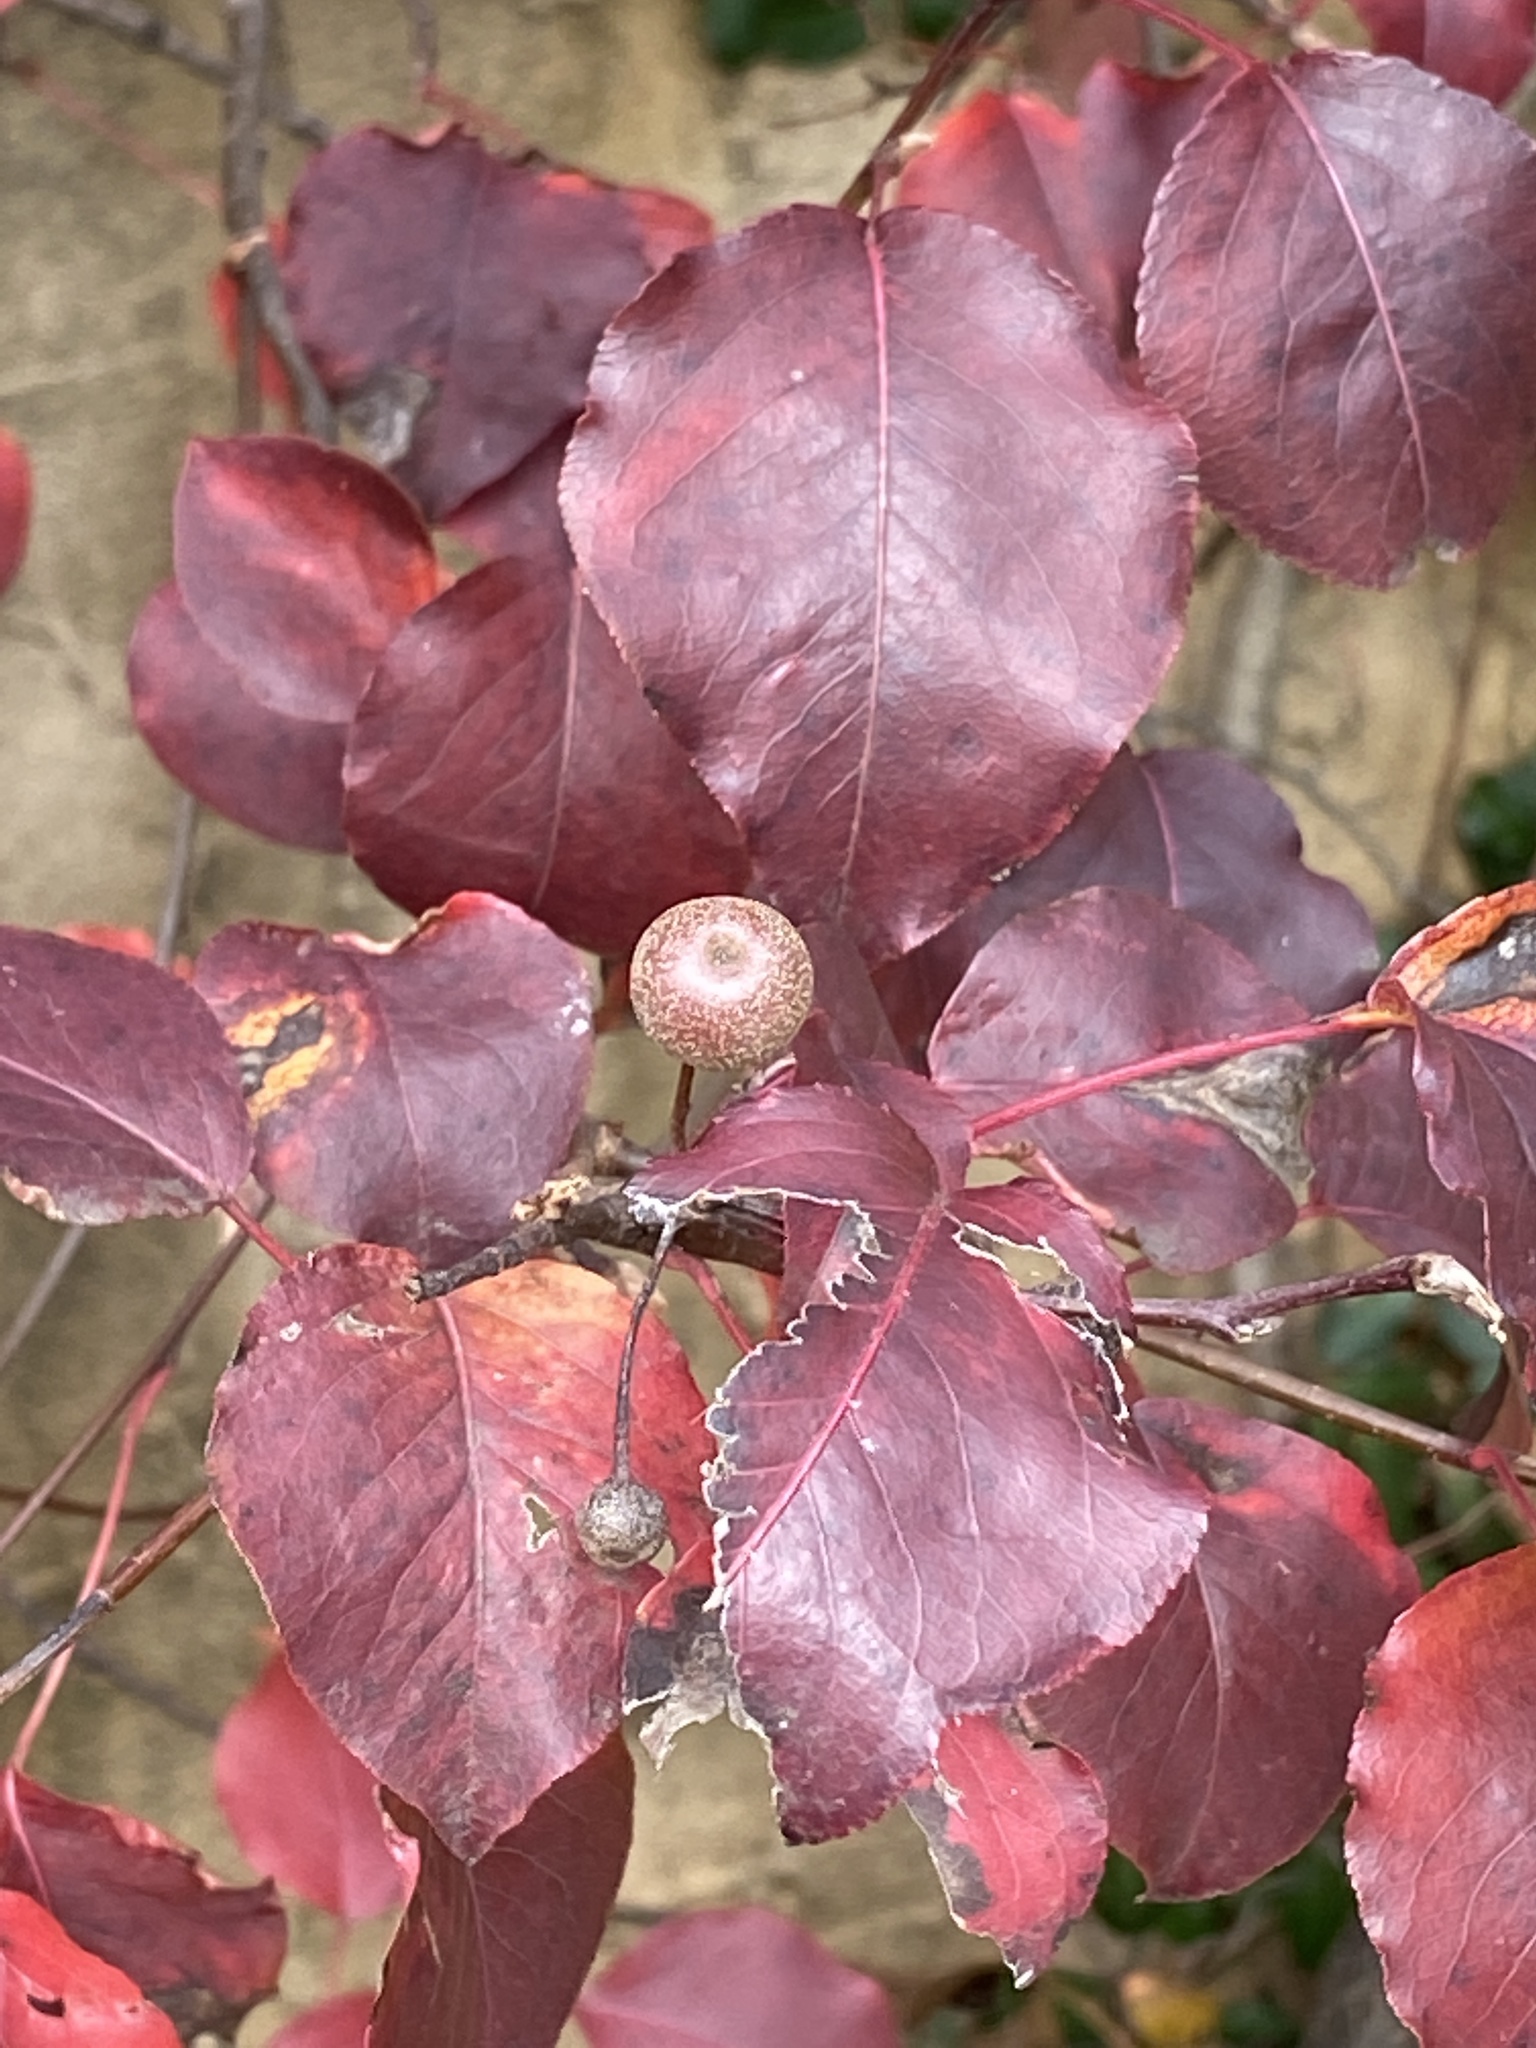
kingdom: Plantae
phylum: Tracheophyta
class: Magnoliopsida
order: Rosales
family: Rosaceae
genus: Pyrus
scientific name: Pyrus calleryana
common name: Callery pear
